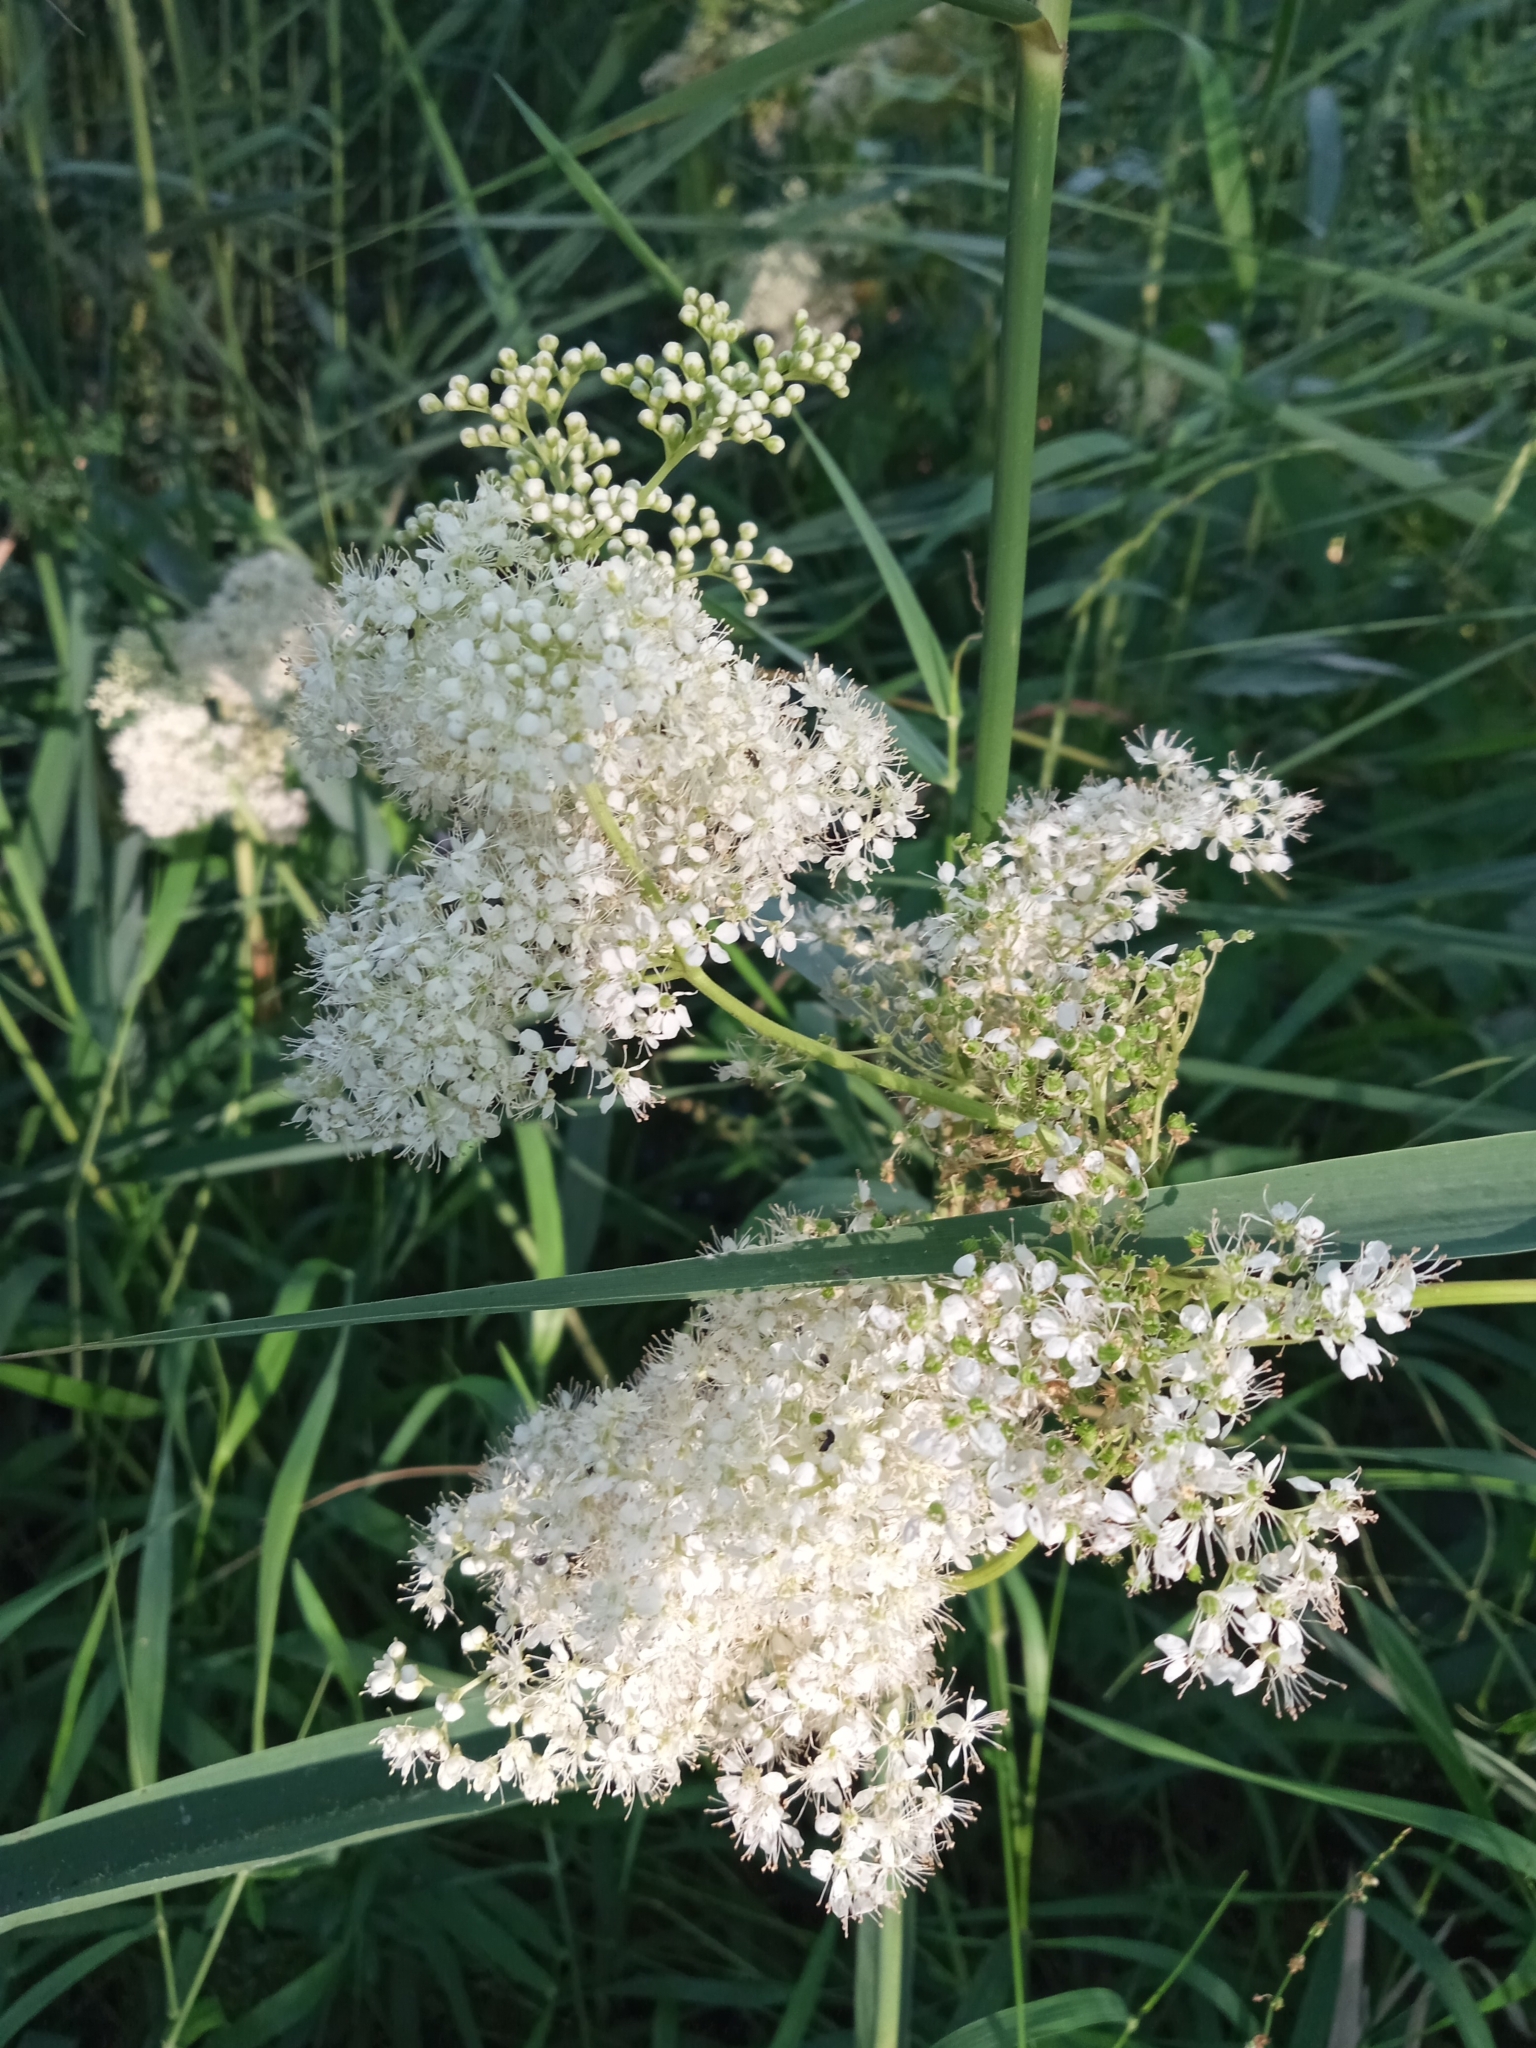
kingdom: Plantae
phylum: Tracheophyta
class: Magnoliopsida
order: Rosales
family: Rosaceae
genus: Filipendula
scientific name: Filipendula ulmaria
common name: Meadowsweet
